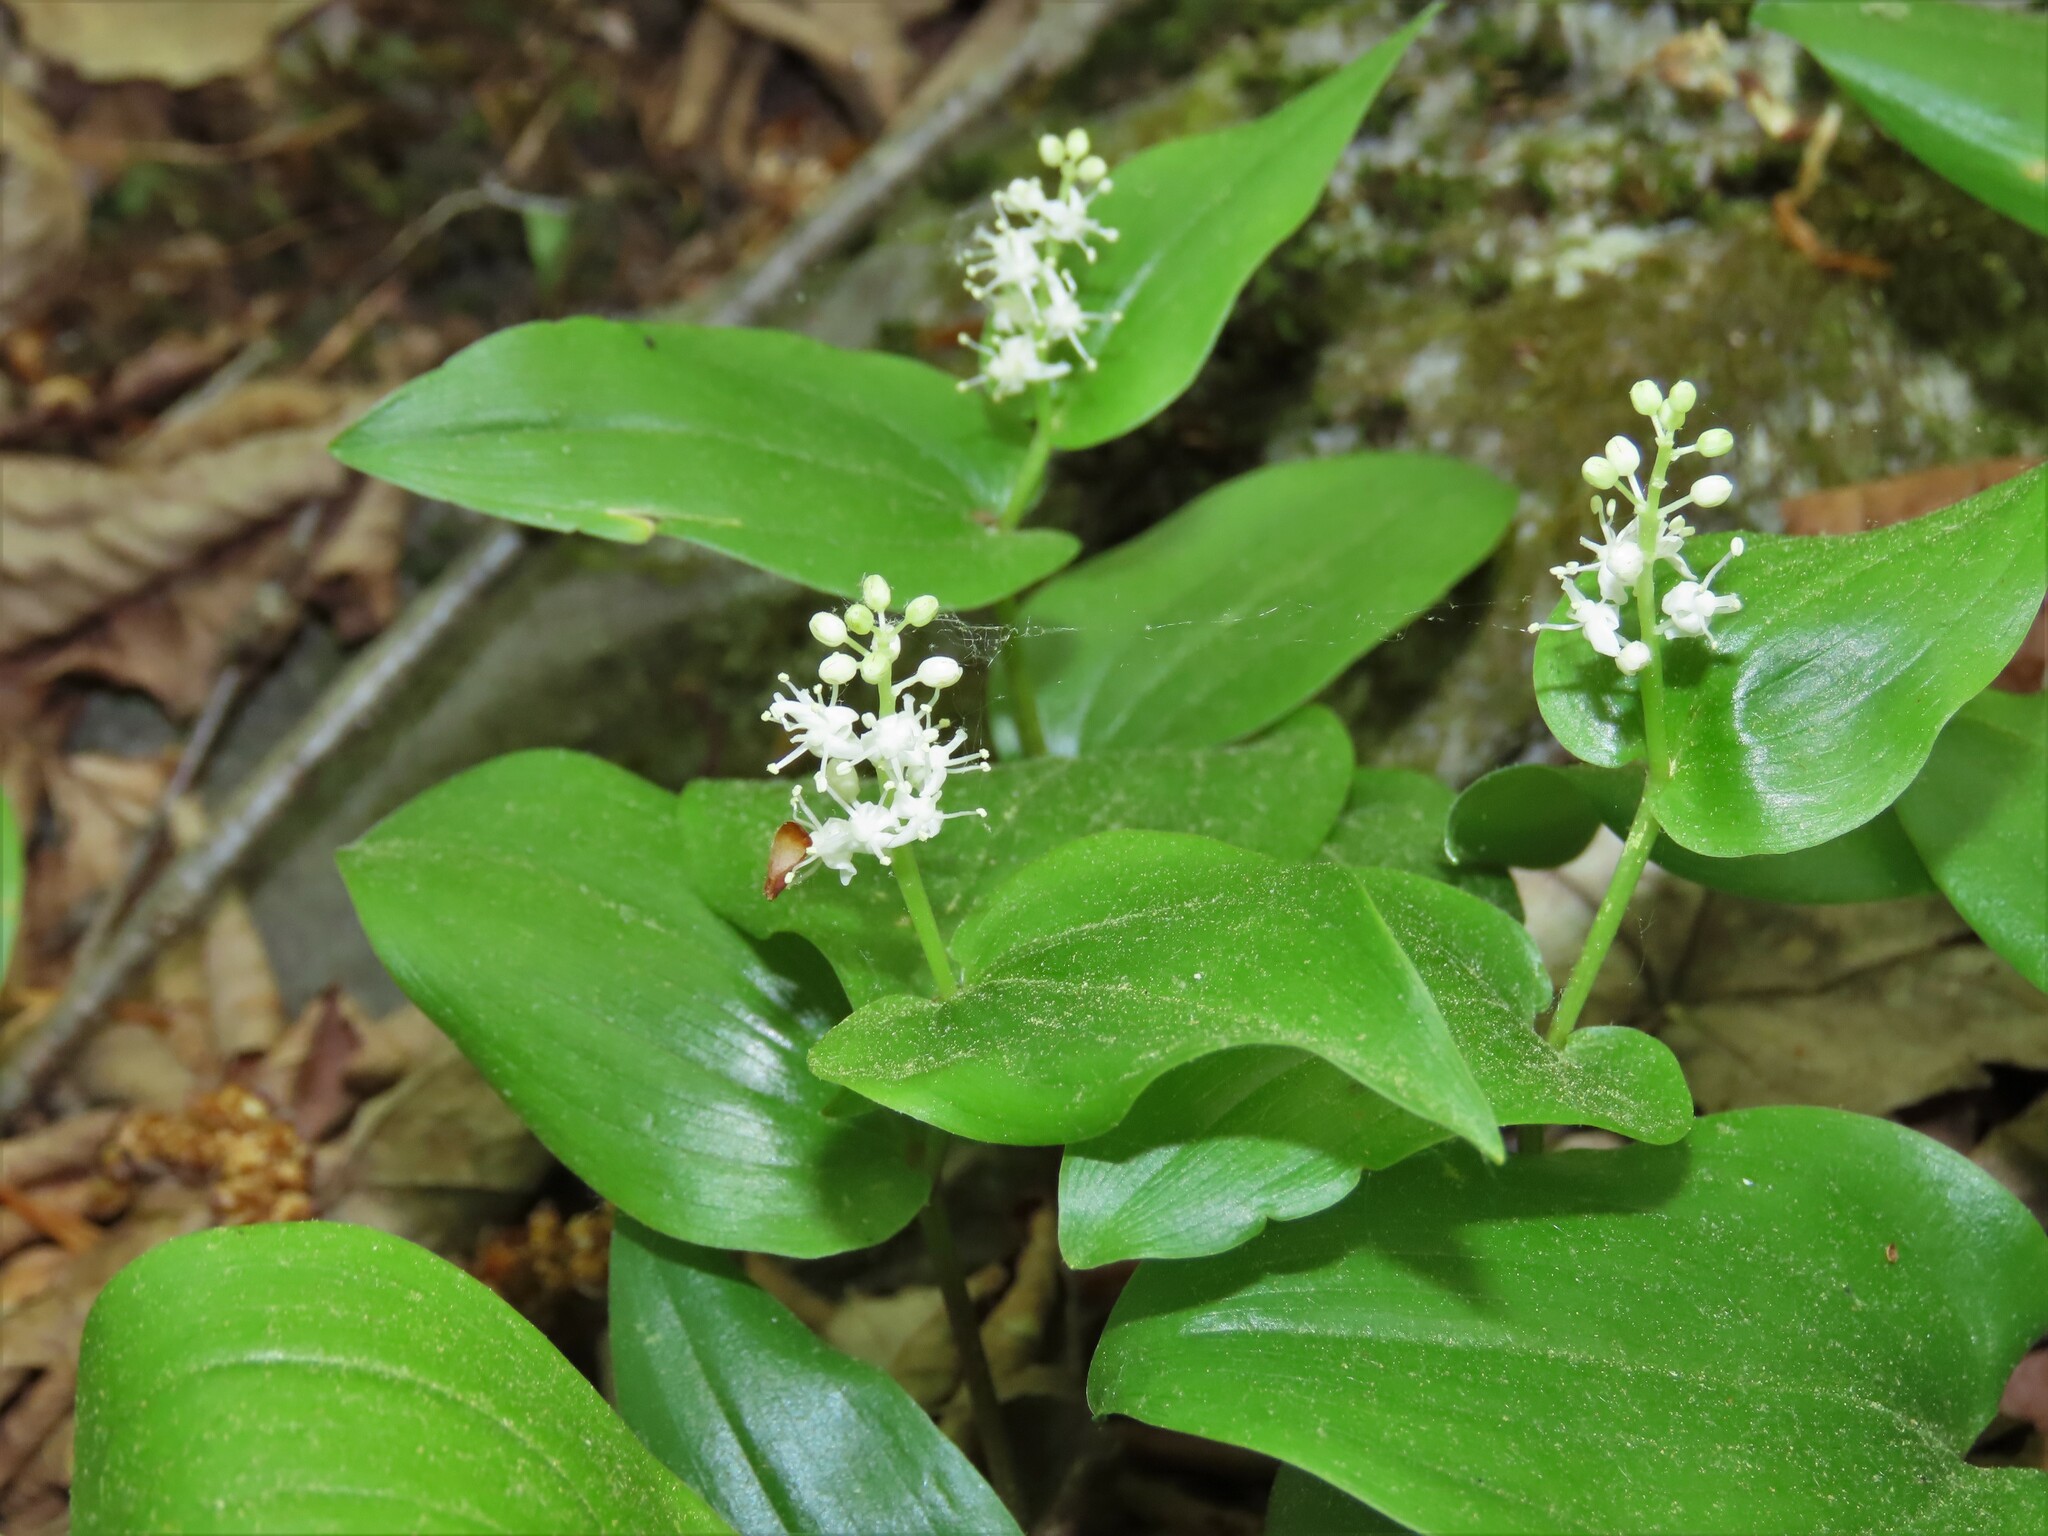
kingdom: Plantae
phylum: Tracheophyta
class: Liliopsida
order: Asparagales
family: Asparagaceae
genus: Maianthemum
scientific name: Maianthemum canadense
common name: False lily-of-the-valley
